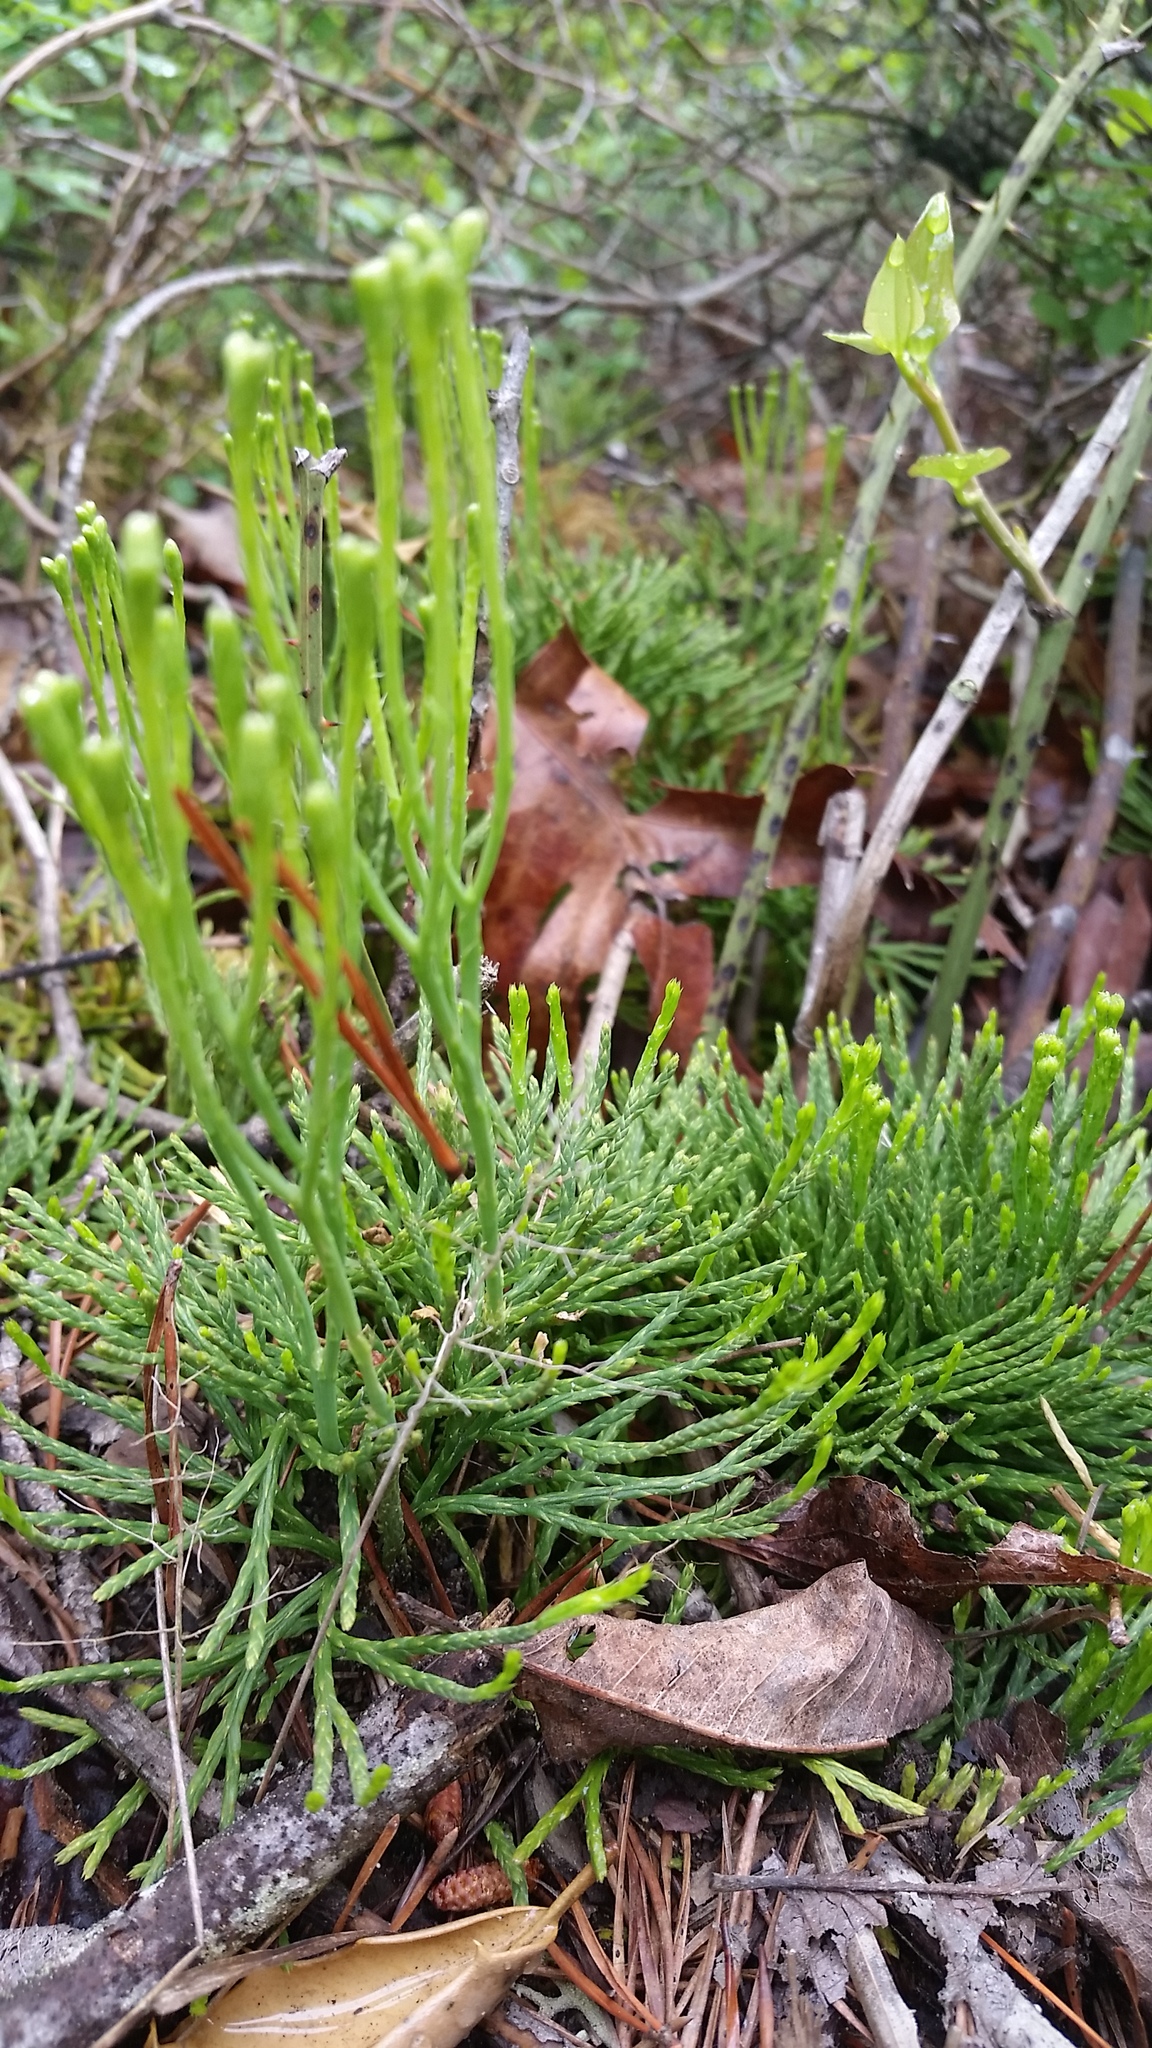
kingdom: Plantae
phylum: Tracheophyta
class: Lycopodiopsida
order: Lycopodiales
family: Lycopodiaceae
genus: Diphasiastrum
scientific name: Diphasiastrum tristachyum
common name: Blue ground-cedar
